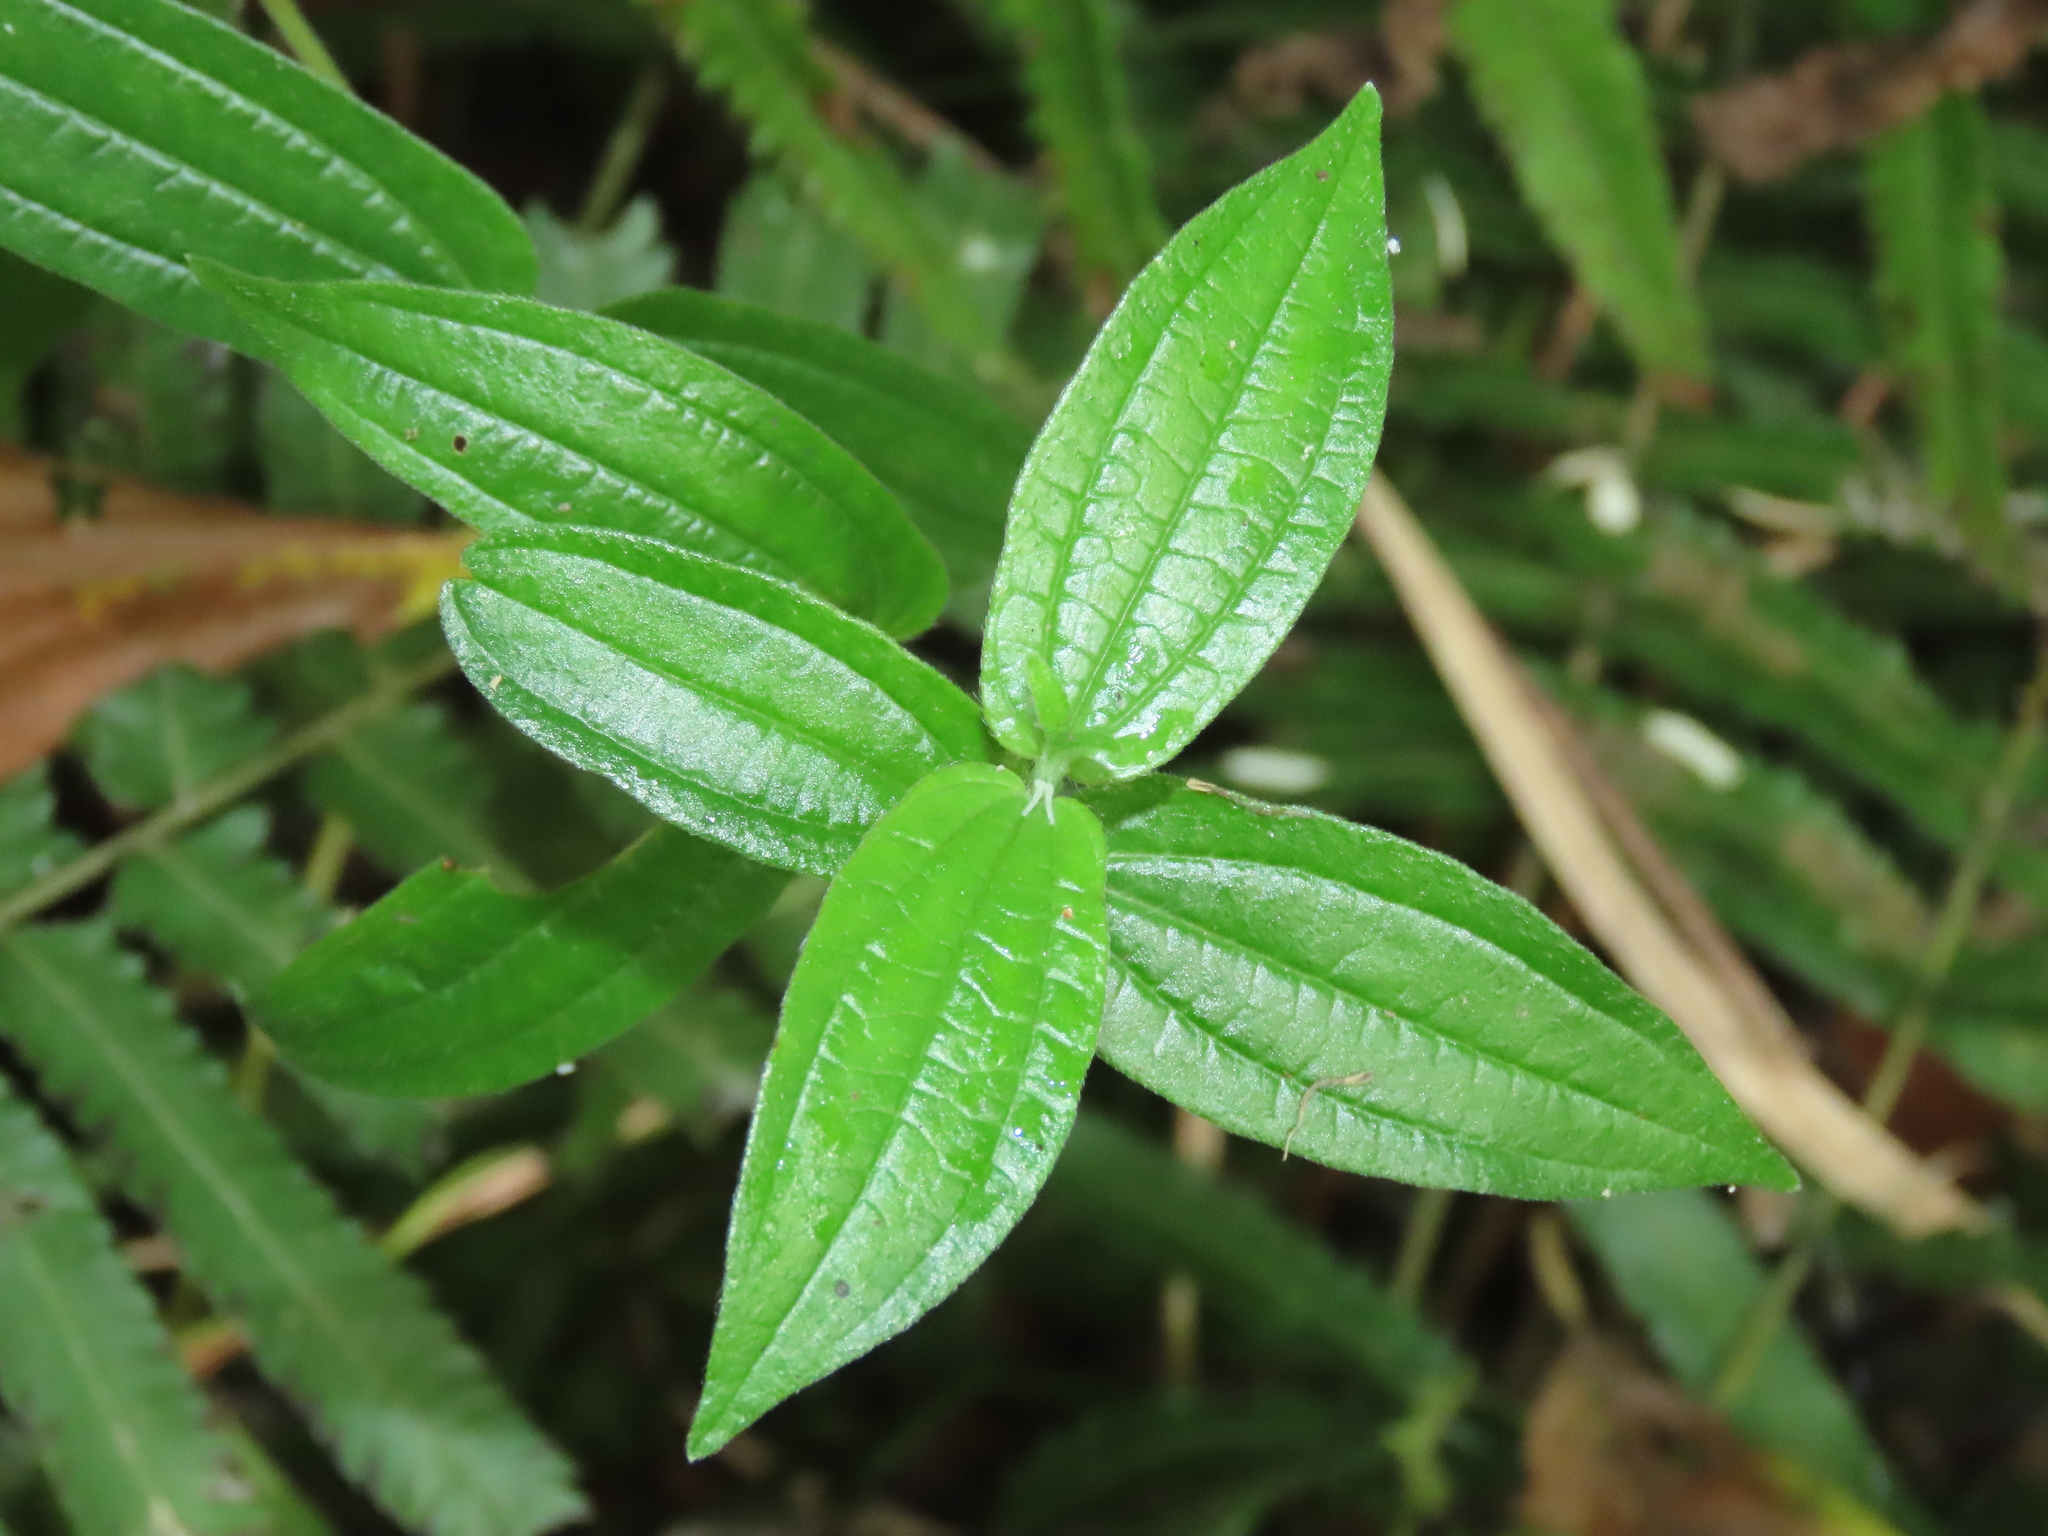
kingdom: Plantae
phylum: Tracheophyta
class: Magnoliopsida
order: Rosales
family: Urticaceae
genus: Gonostegia
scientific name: Gonostegia triandra
